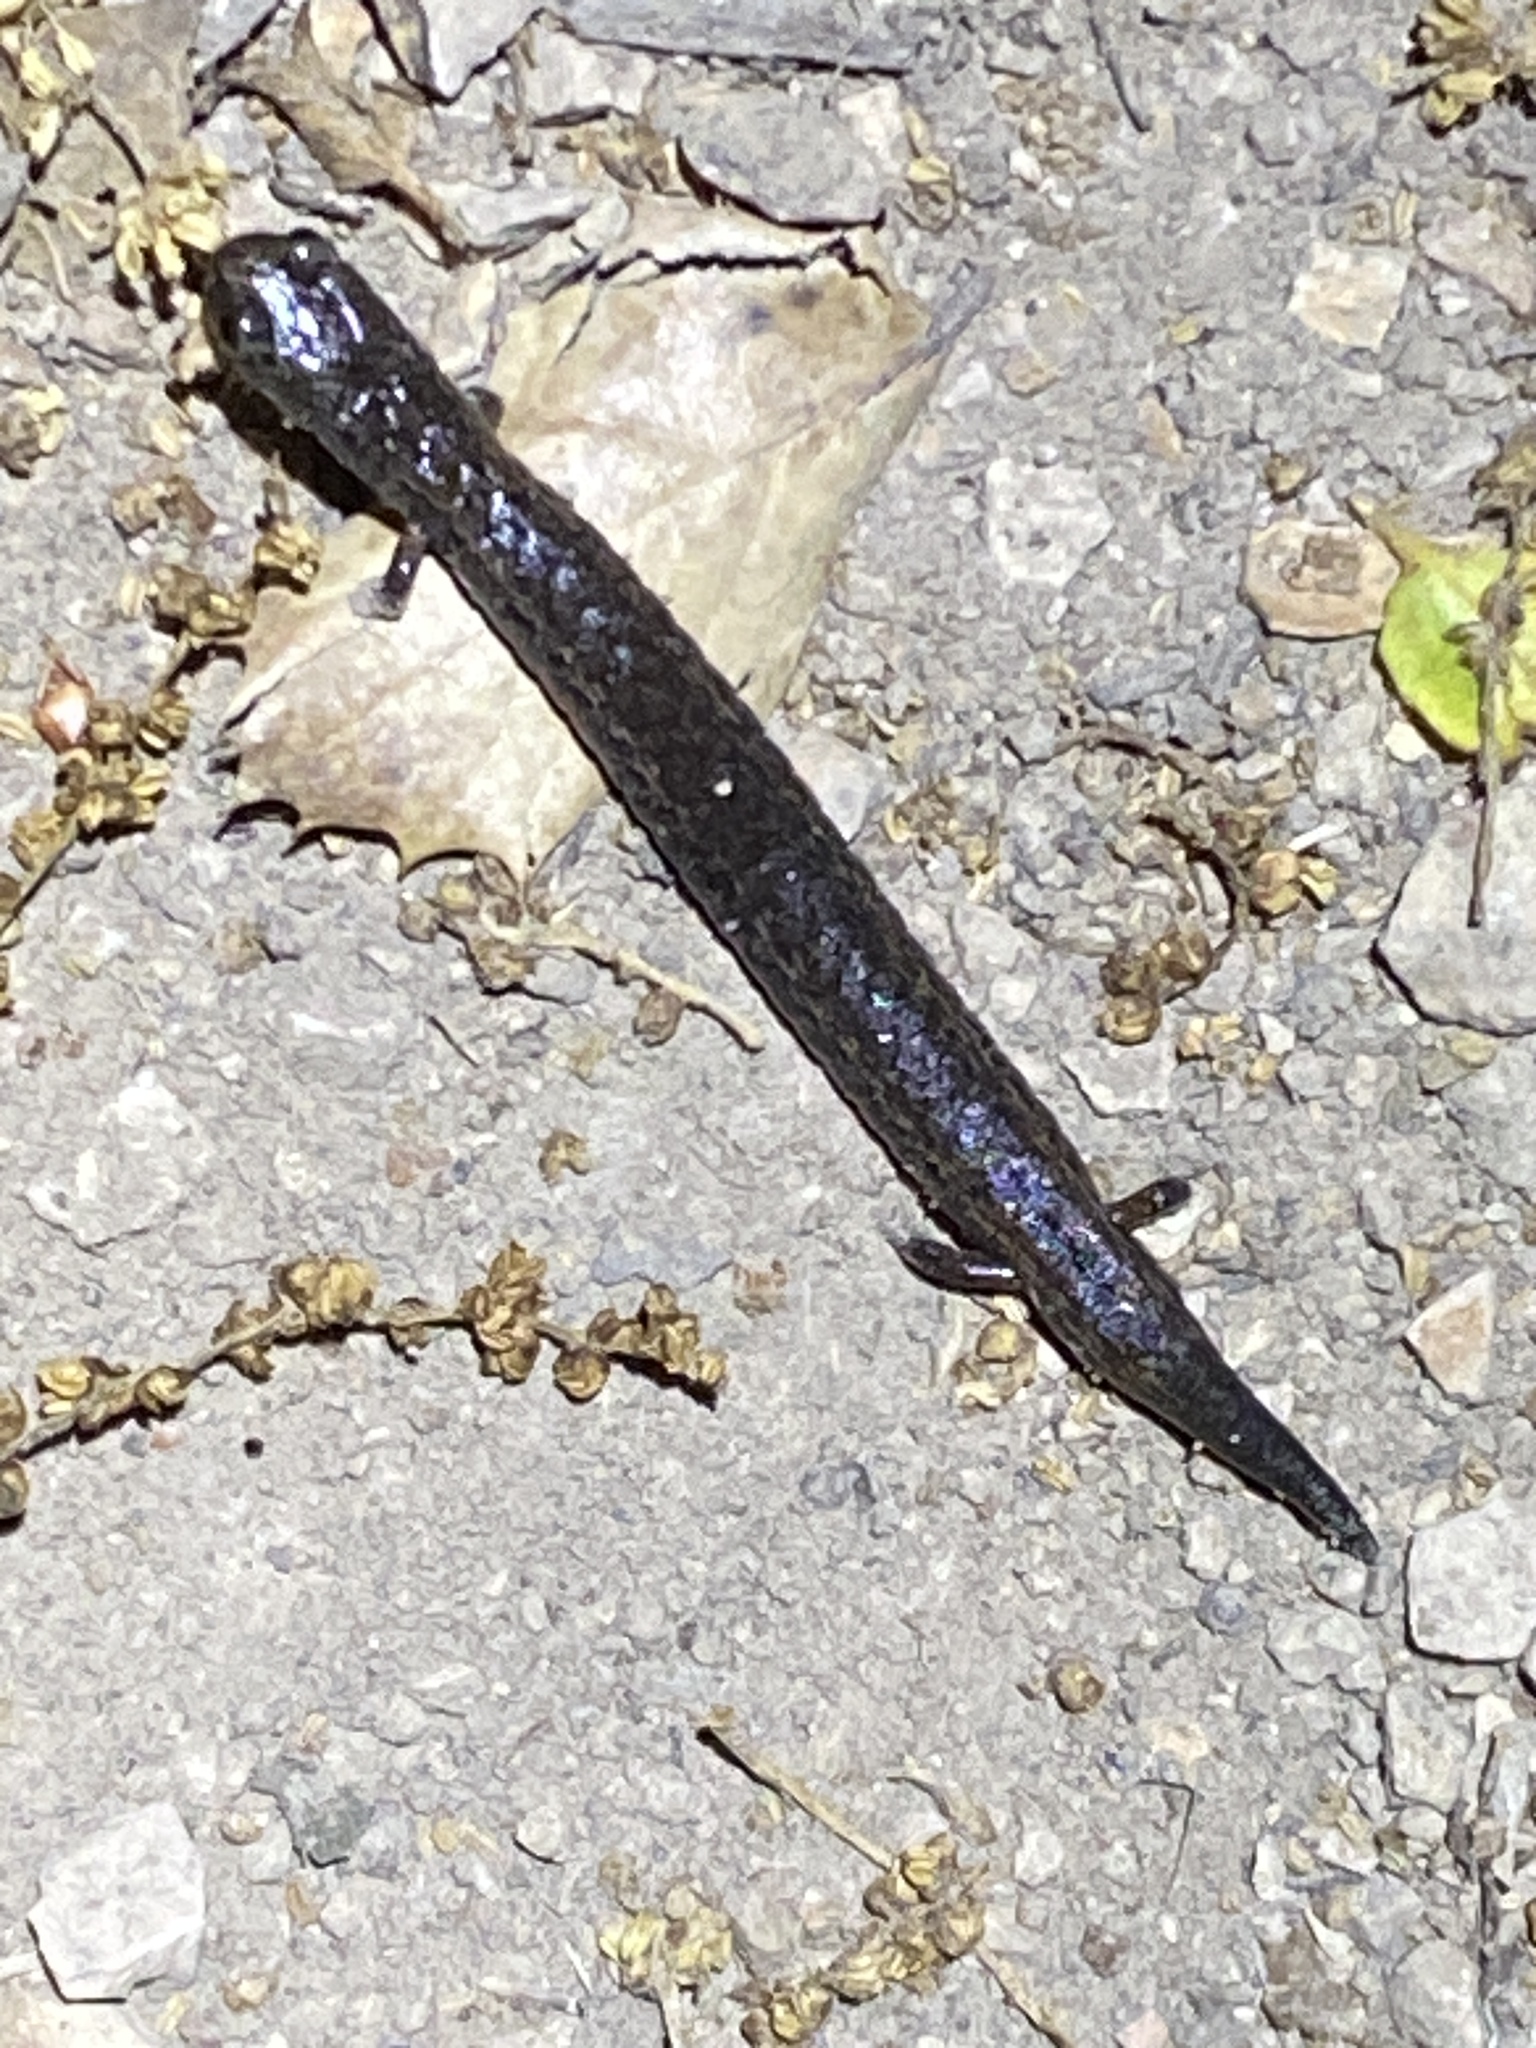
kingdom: Animalia
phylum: Chordata
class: Amphibia
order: Caudata
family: Plethodontidae
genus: Batrachoseps
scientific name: Batrachoseps attenuatus
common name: California slender salamander
